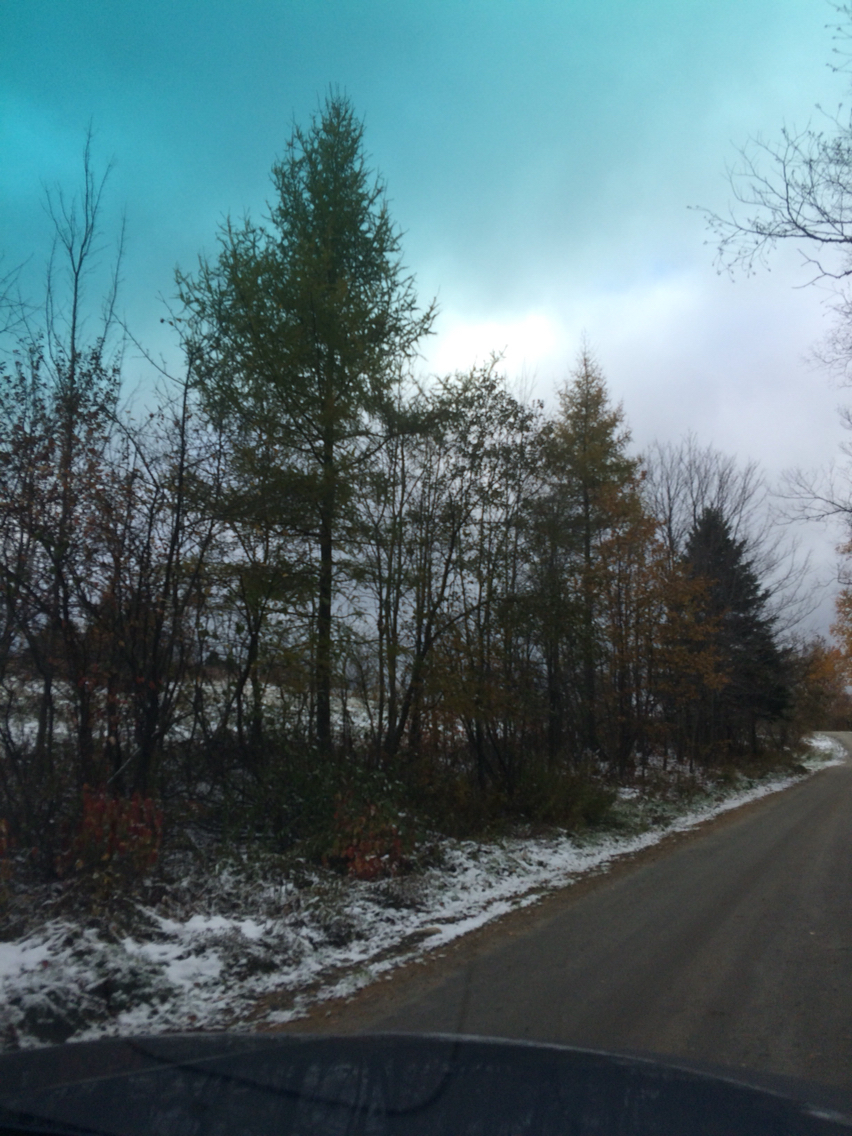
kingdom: Plantae
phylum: Tracheophyta
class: Pinopsida
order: Pinales
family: Pinaceae
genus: Larix
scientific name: Larix laricina
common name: American larch
